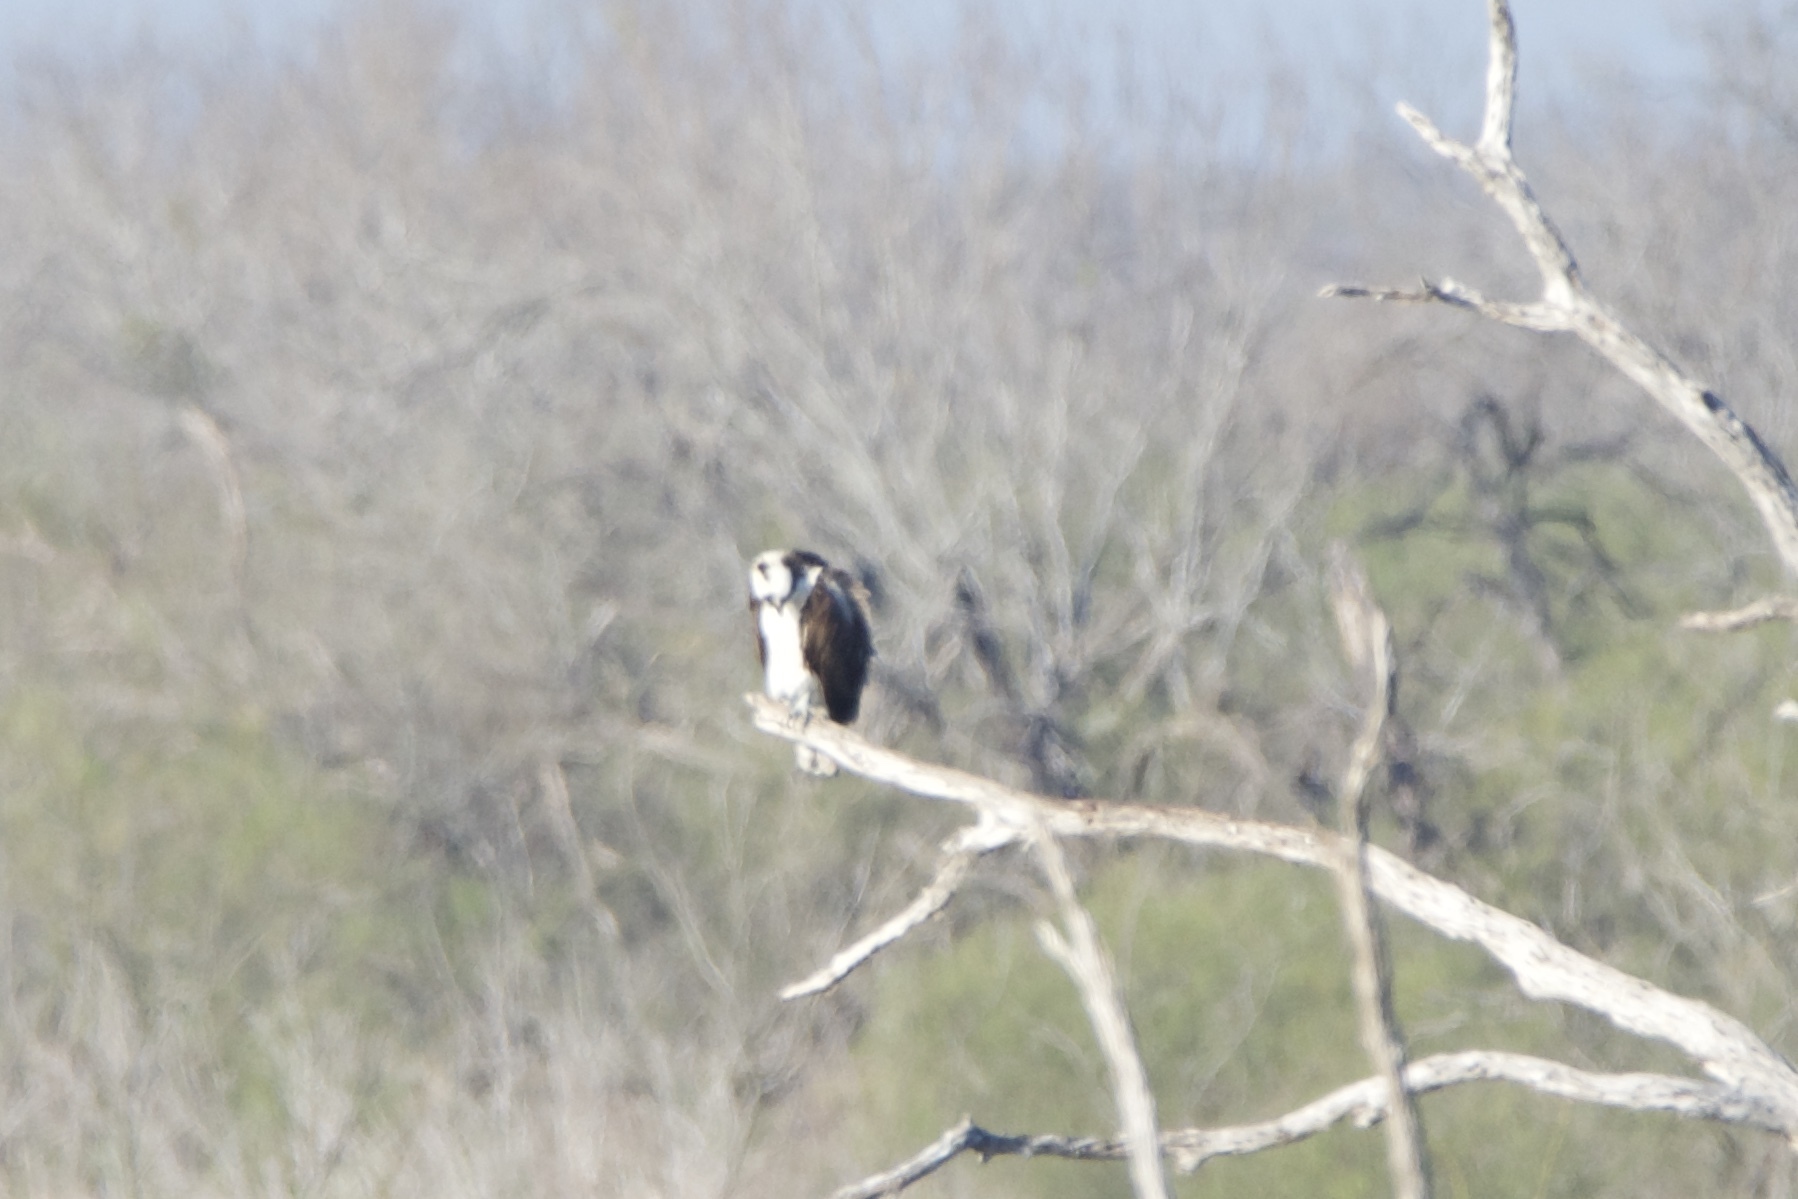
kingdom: Animalia
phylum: Chordata
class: Aves
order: Accipitriformes
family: Pandionidae
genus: Pandion
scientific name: Pandion haliaetus
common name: Osprey
